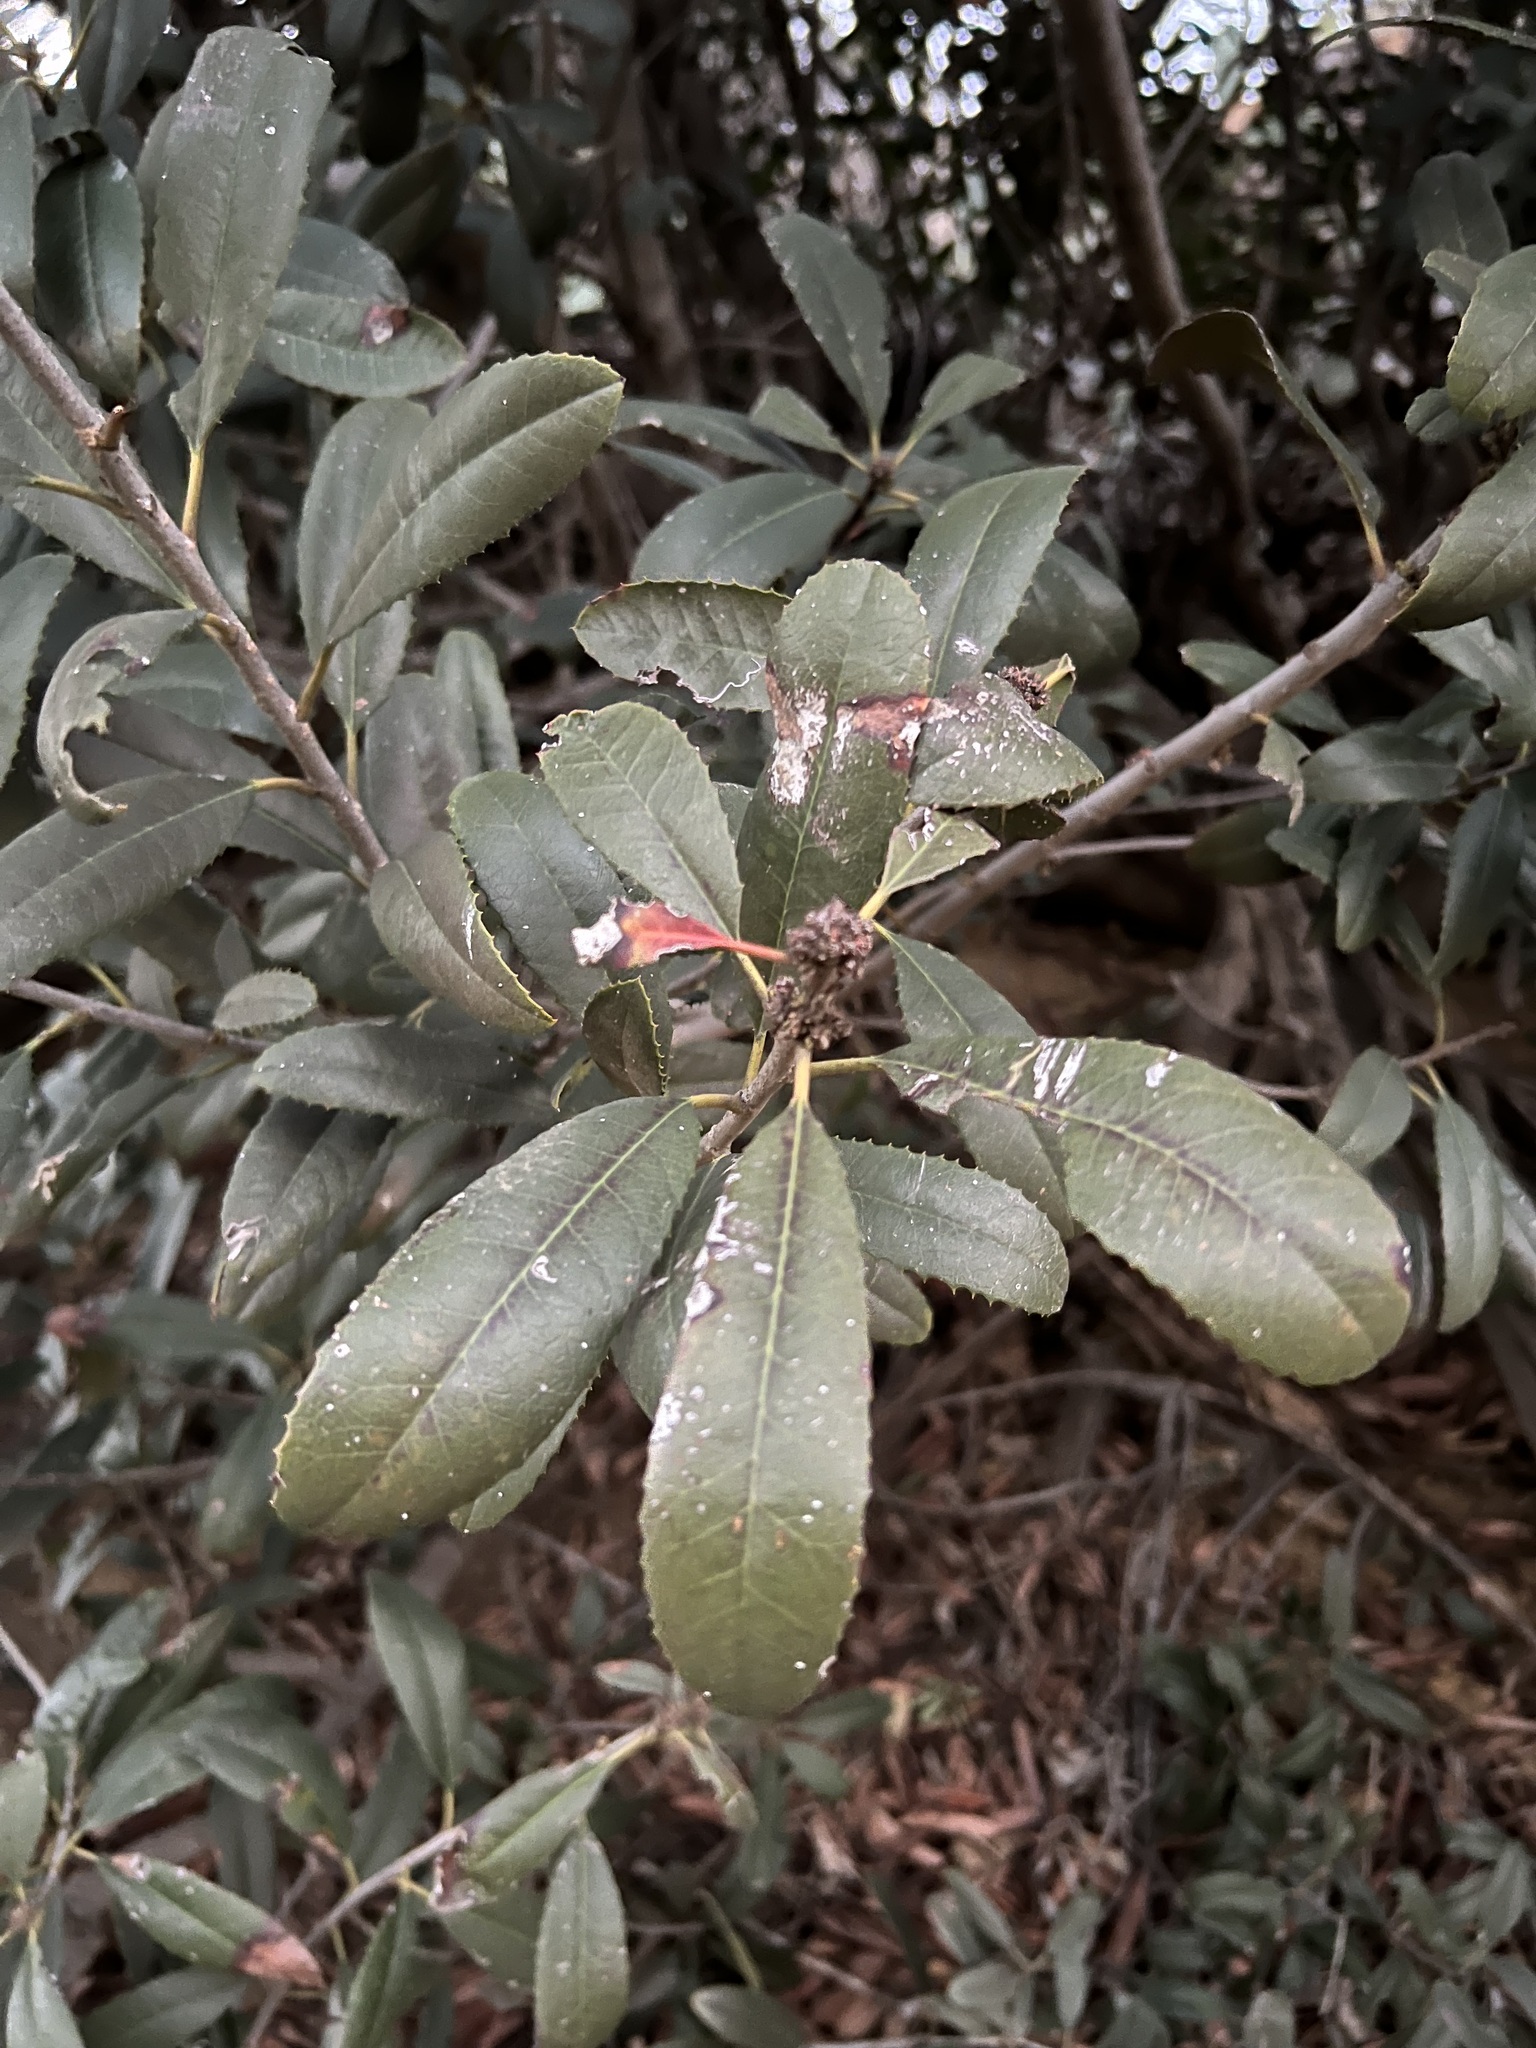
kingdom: Plantae
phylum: Tracheophyta
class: Magnoliopsida
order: Rosales
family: Rosaceae
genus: Heteromeles
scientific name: Heteromeles arbutifolia
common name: California-holly
